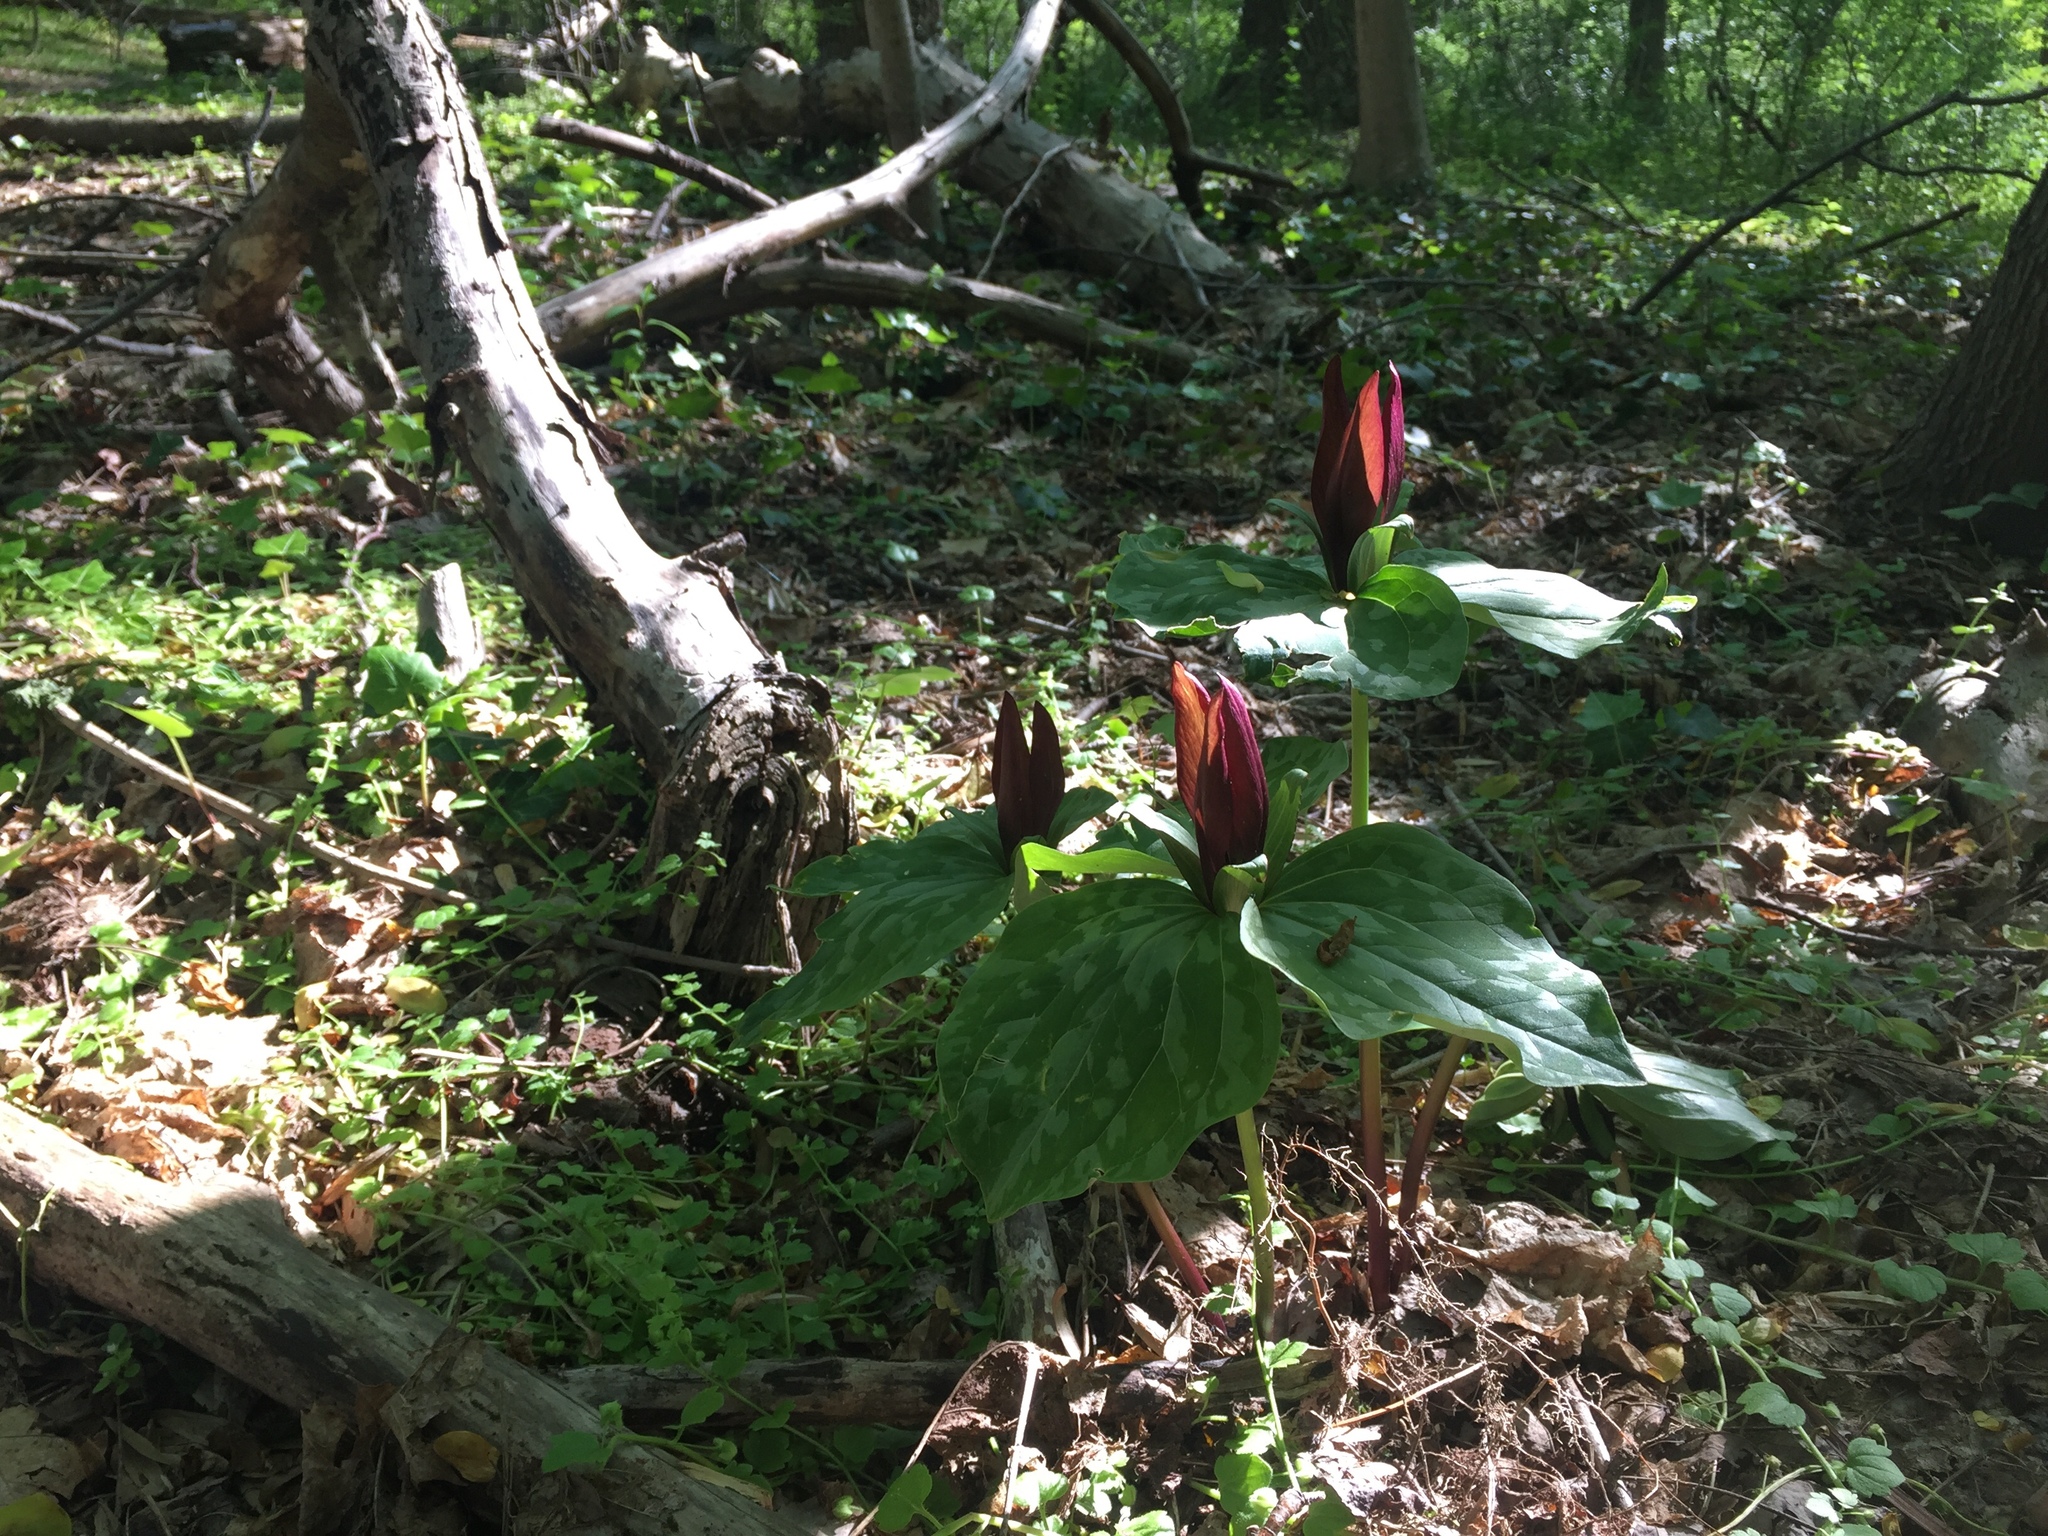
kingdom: Plantae
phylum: Tracheophyta
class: Liliopsida
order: Liliales
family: Melanthiaceae
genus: Trillium
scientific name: Trillium cuneatum
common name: Cuneate trillium
